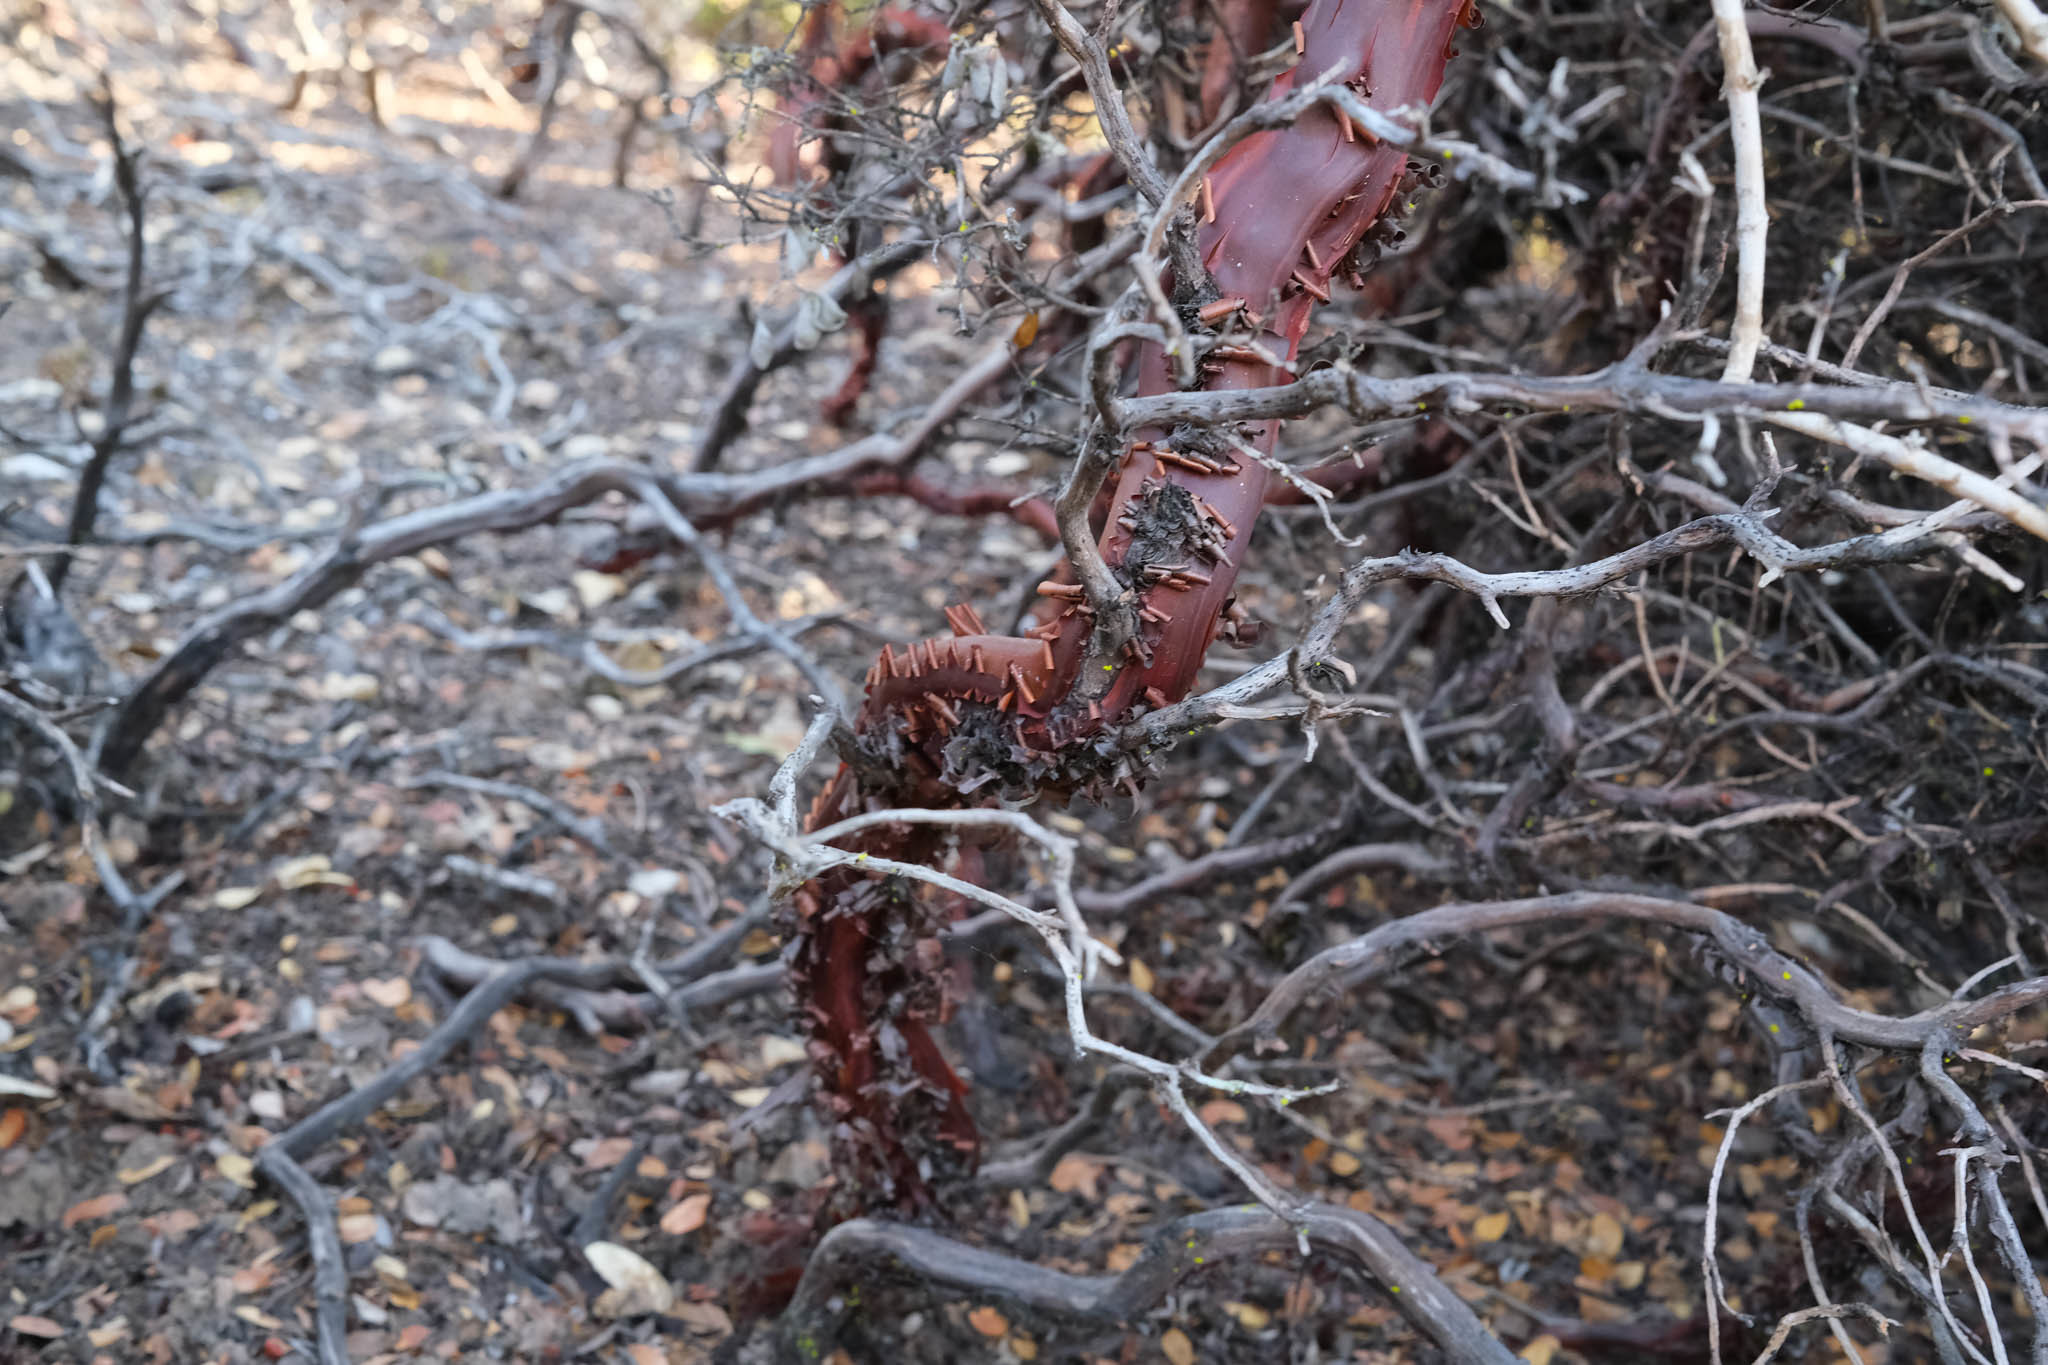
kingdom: Plantae
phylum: Tracheophyta
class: Magnoliopsida
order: Ericales
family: Ericaceae
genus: Arctostaphylos
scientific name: Arctostaphylos pumila
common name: Sandmat manzanita
